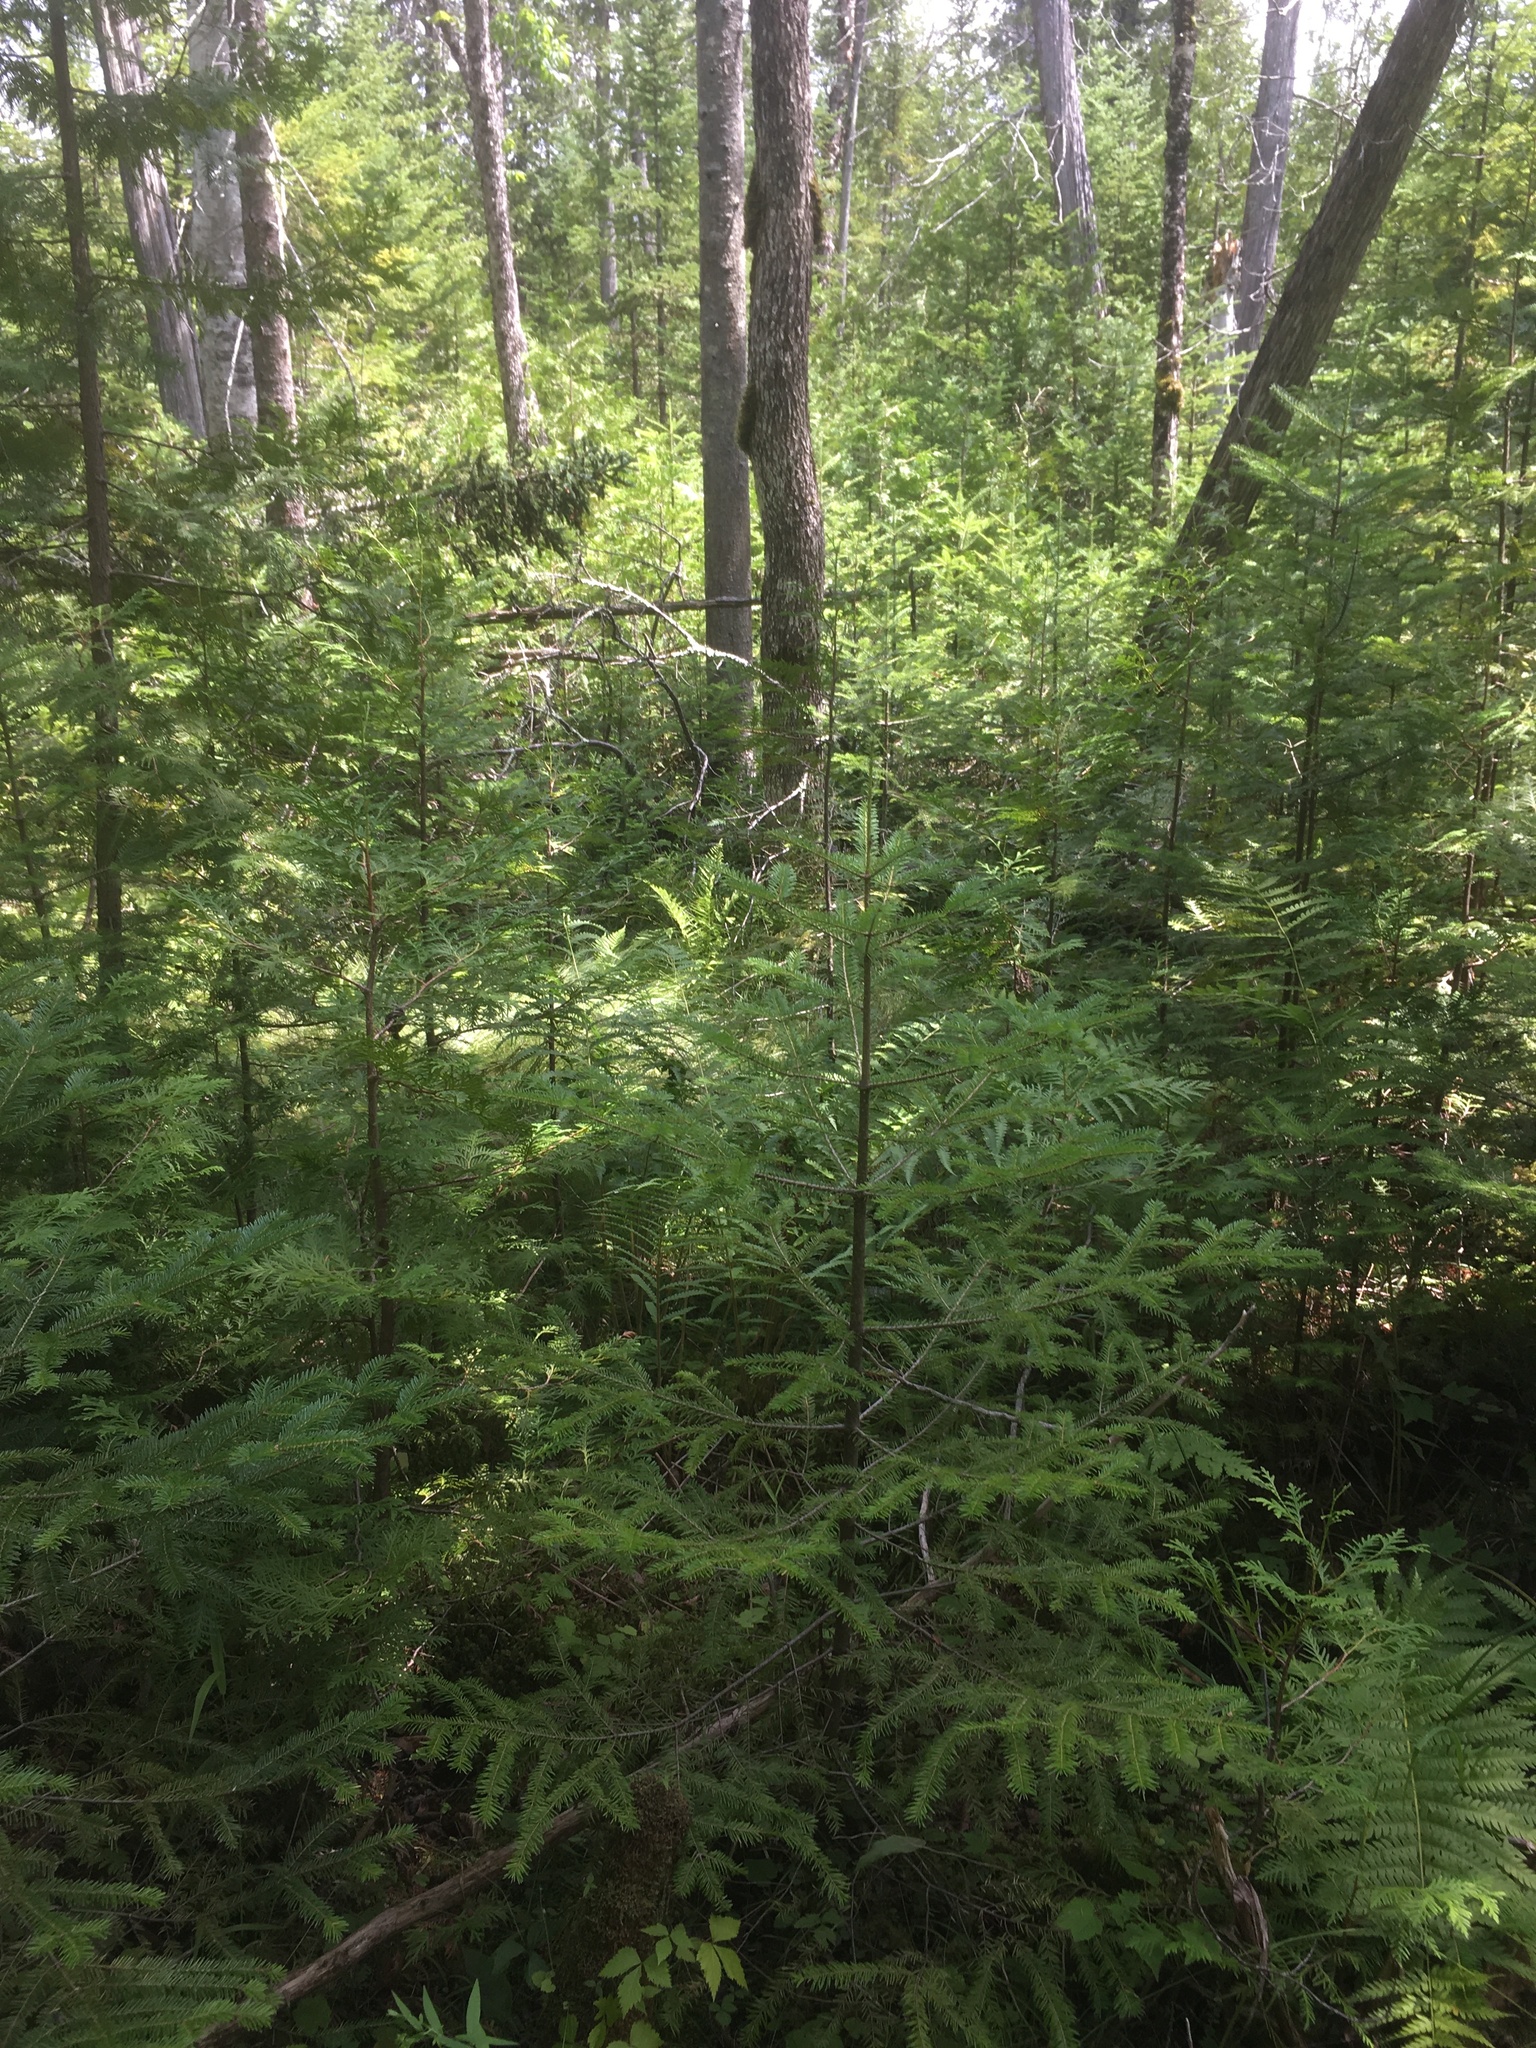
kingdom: Plantae
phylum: Tracheophyta
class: Pinopsida
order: Pinales
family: Pinaceae
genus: Abies
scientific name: Abies balsamea
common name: Balsam fir
